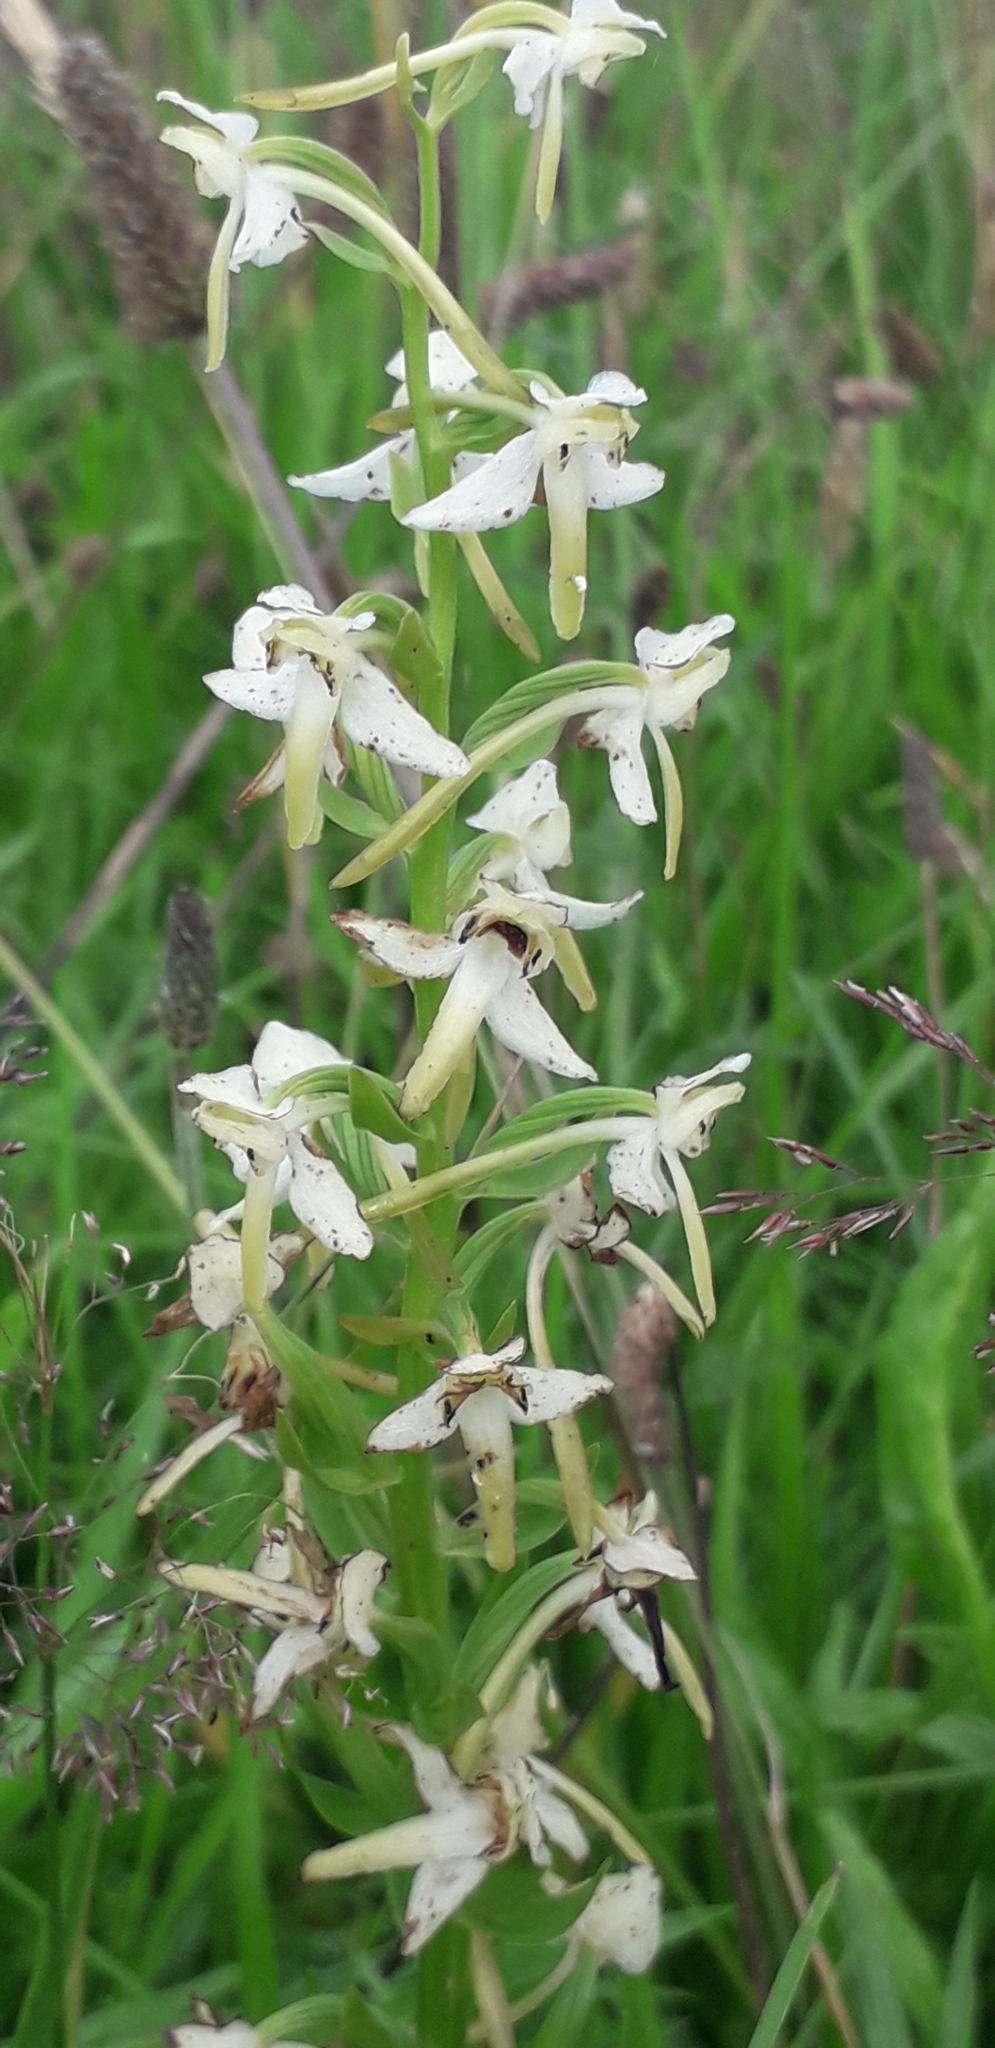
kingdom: Plantae
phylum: Tracheophyta
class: Liliopsida
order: Asparagales
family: Orchidaceae
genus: Platanthera
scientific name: Platanthera chlorantha
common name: Greater butterfly-orchid
